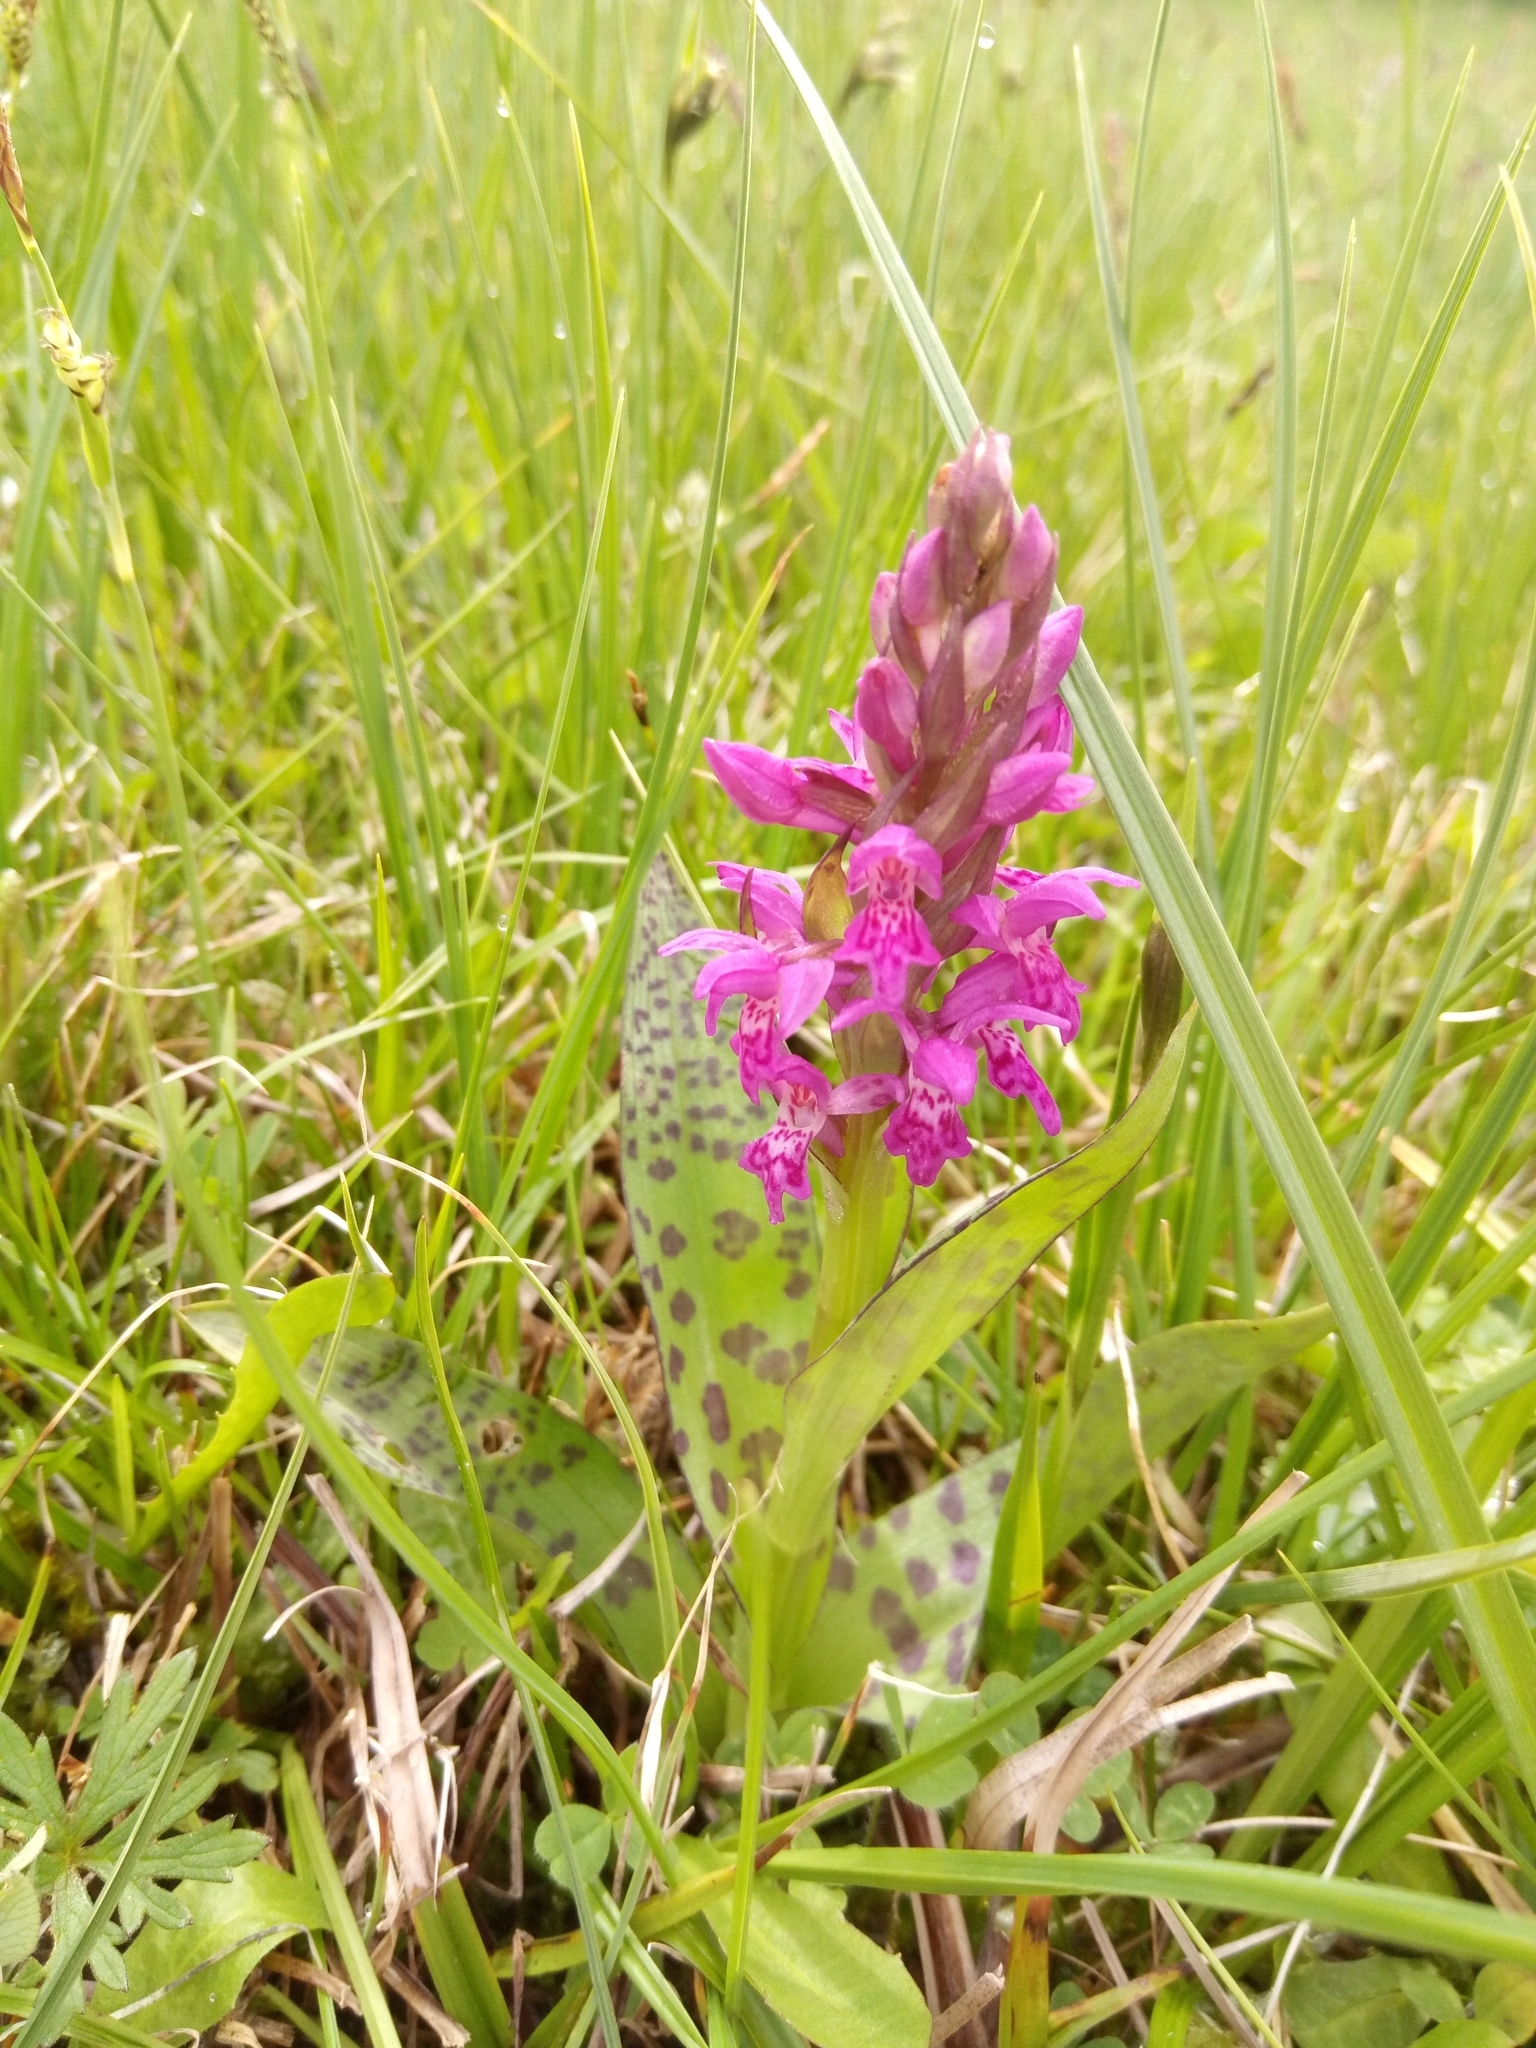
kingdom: Plantae
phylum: Tracheophyta
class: Liliopsida
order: Asparagales
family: Orchidaceae
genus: Dactylorhiza
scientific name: Dactylorhiza majalis
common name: Marsh orchid
